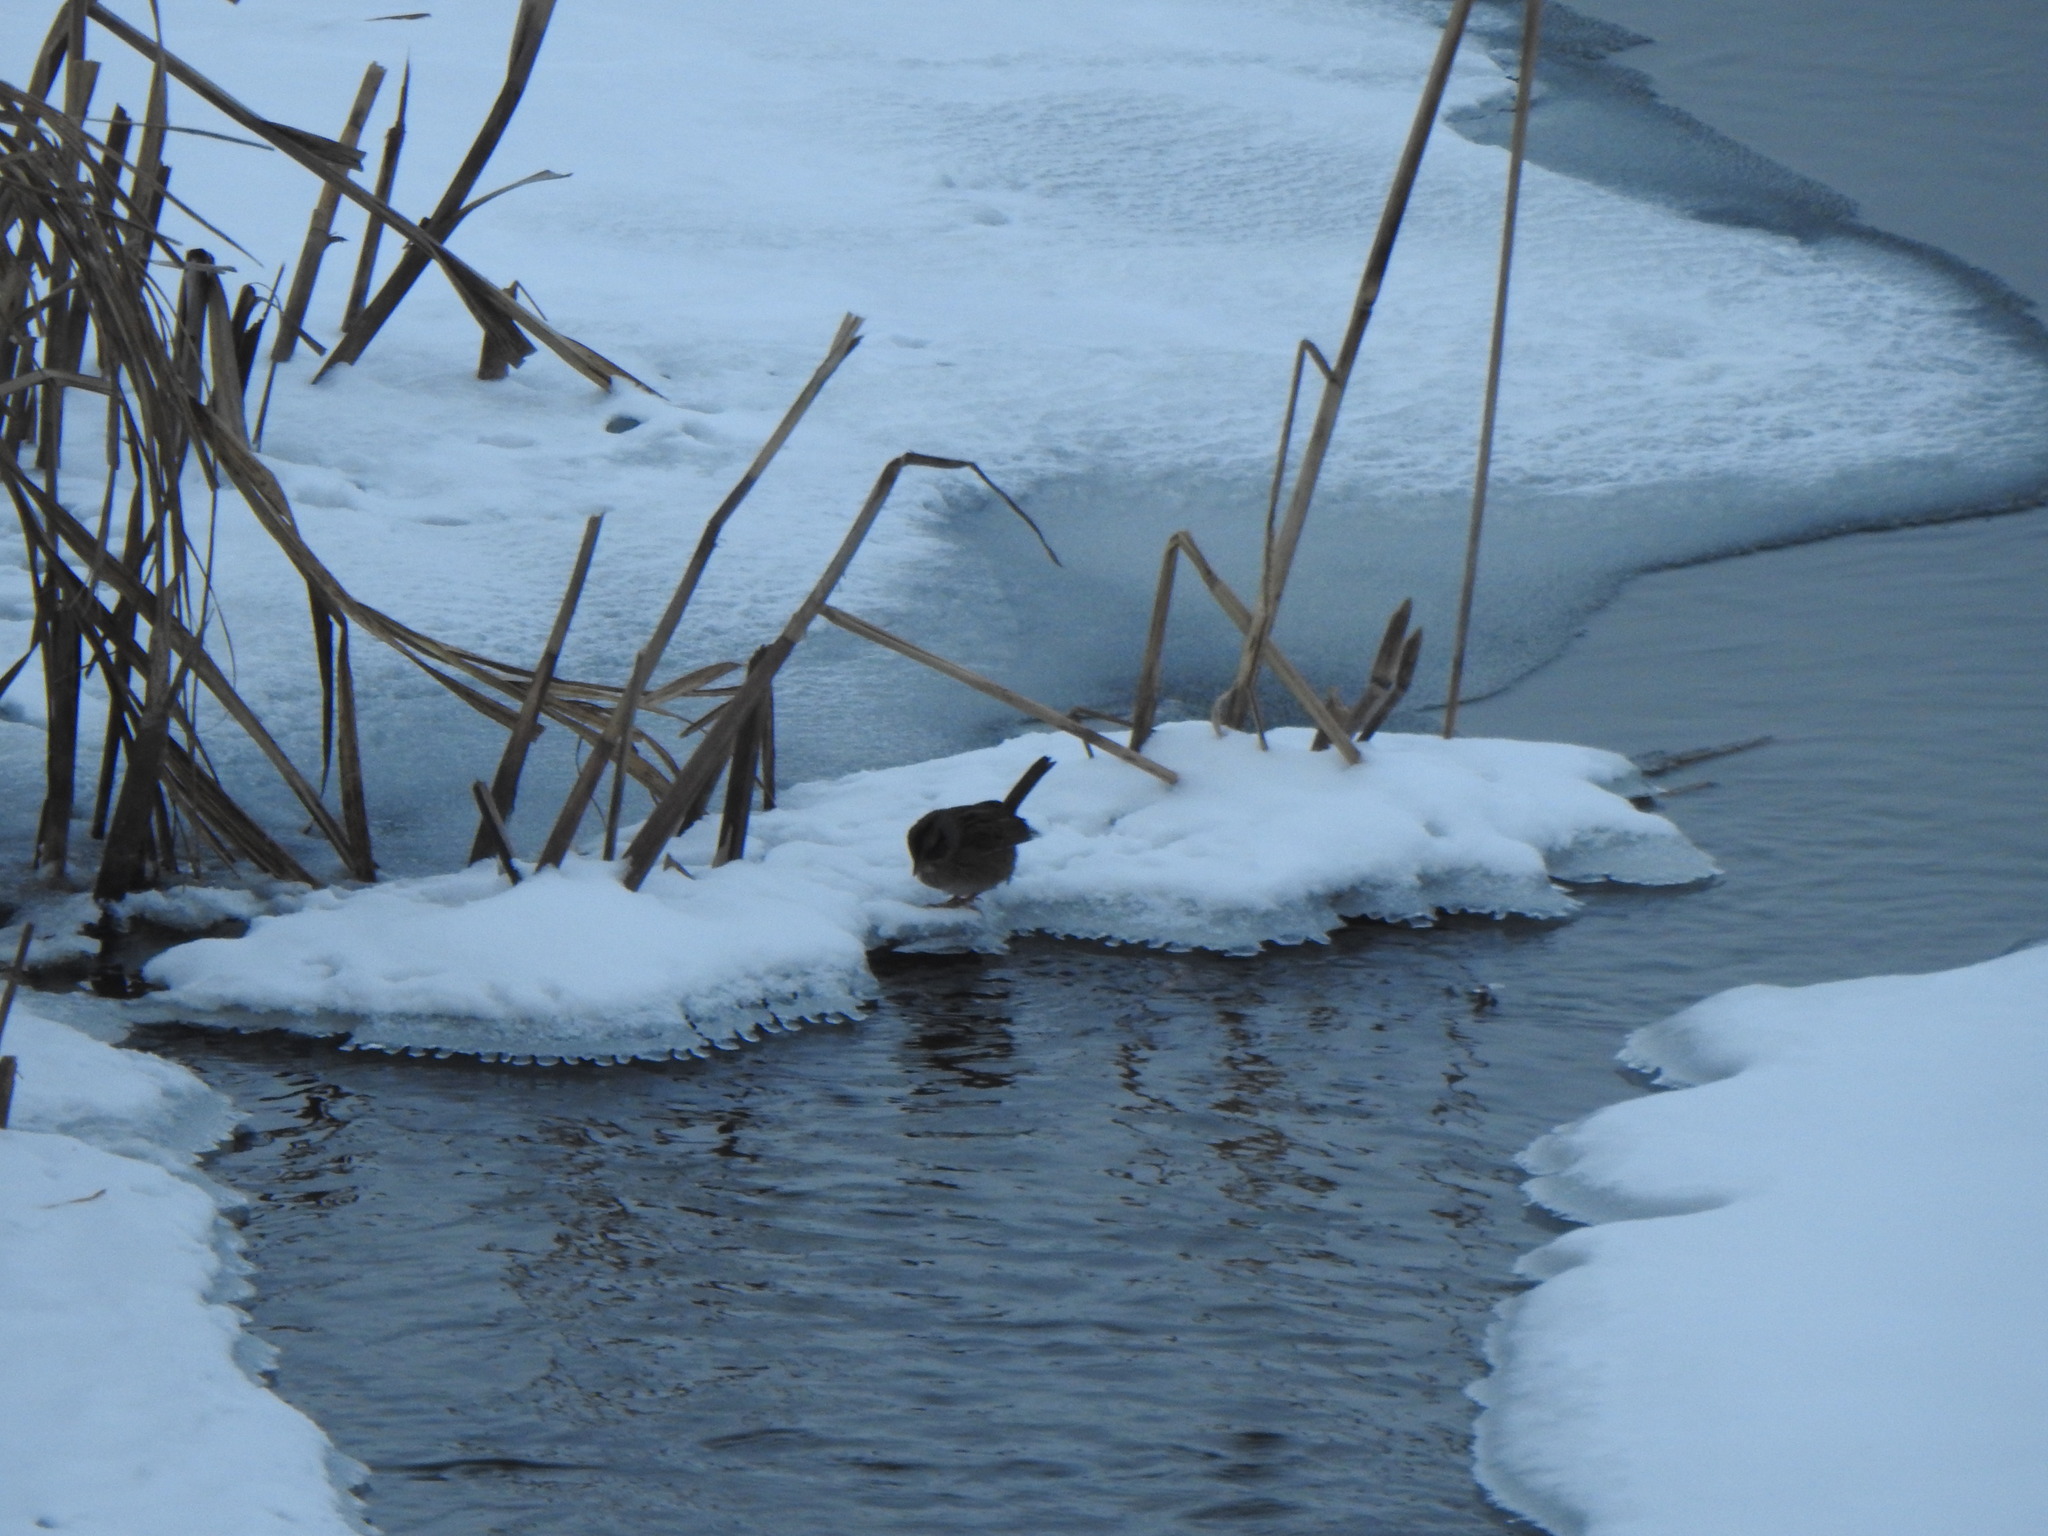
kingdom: Animalia
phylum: Chordata
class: Aves
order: Passeriformes
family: Passerellidae
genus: Melospiza
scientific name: Melospiza georgiana
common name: Swamp sparrow
